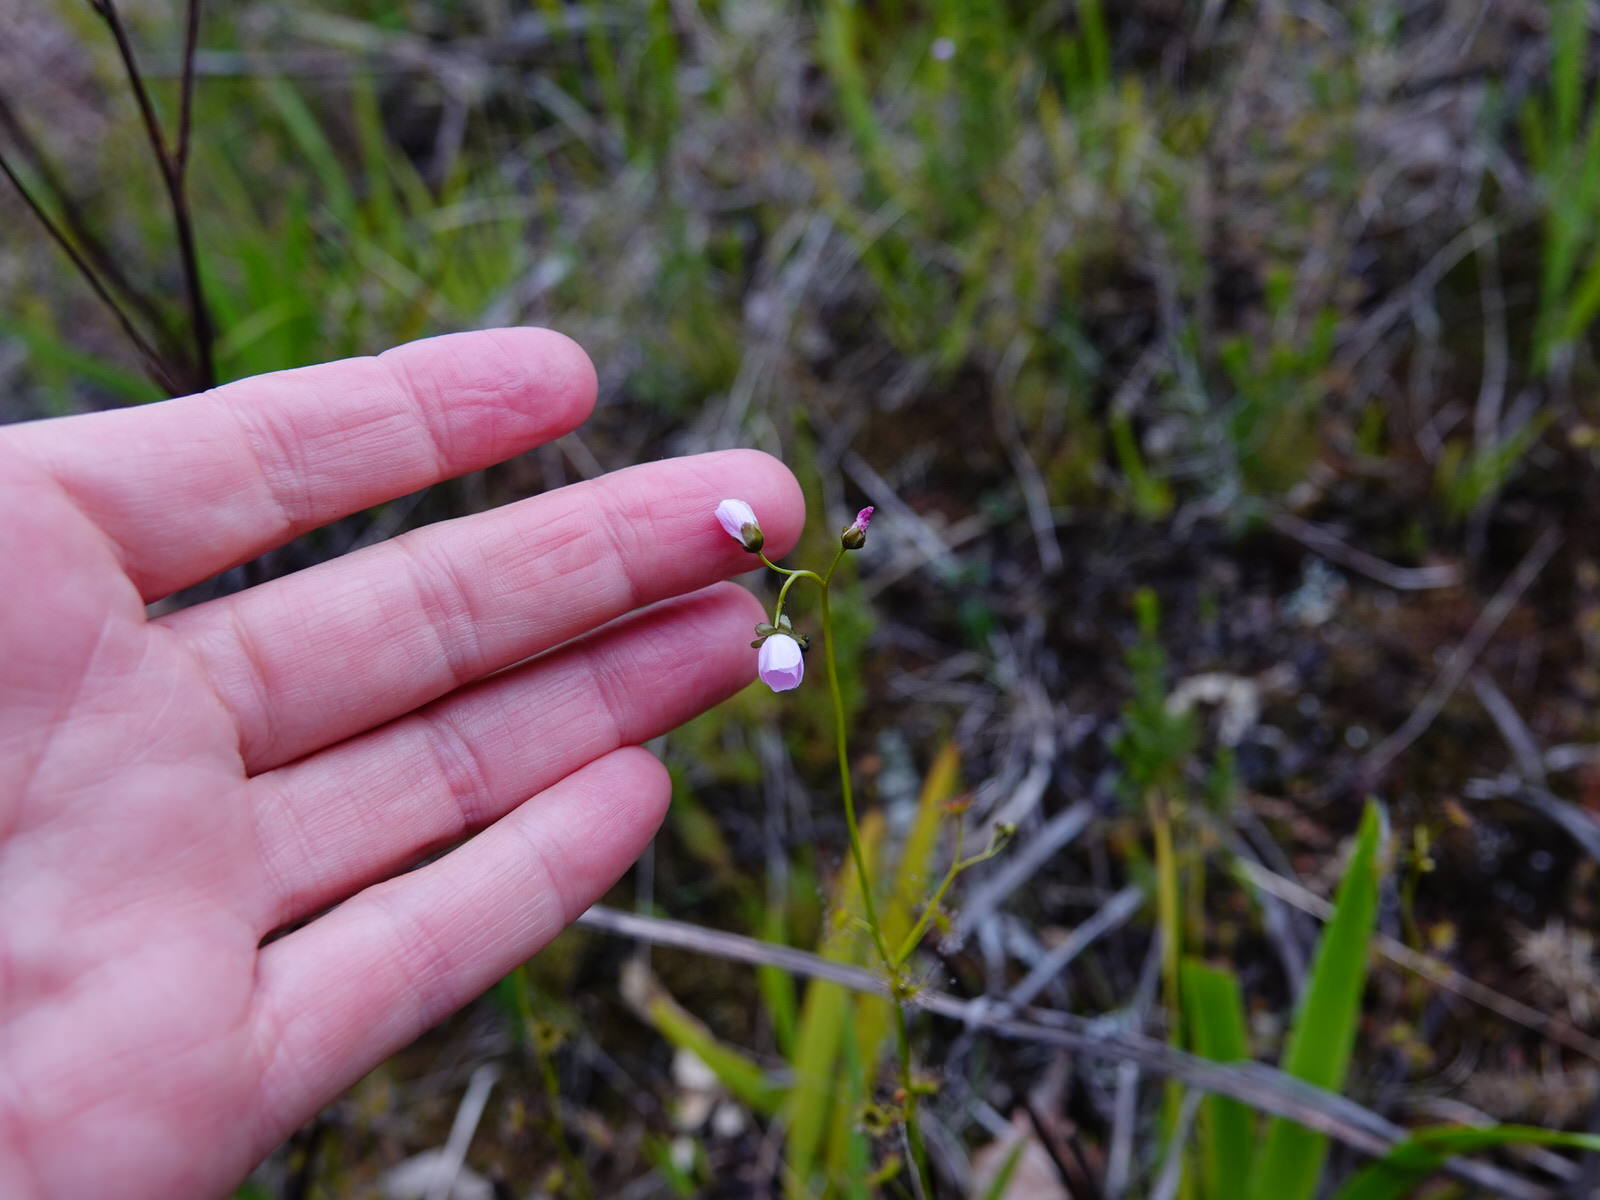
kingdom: Plantae
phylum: Tracheophyta
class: Magnoliopsida
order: Caryophyllales
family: Droseraceae
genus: Drosera
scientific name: Drosera peltata
